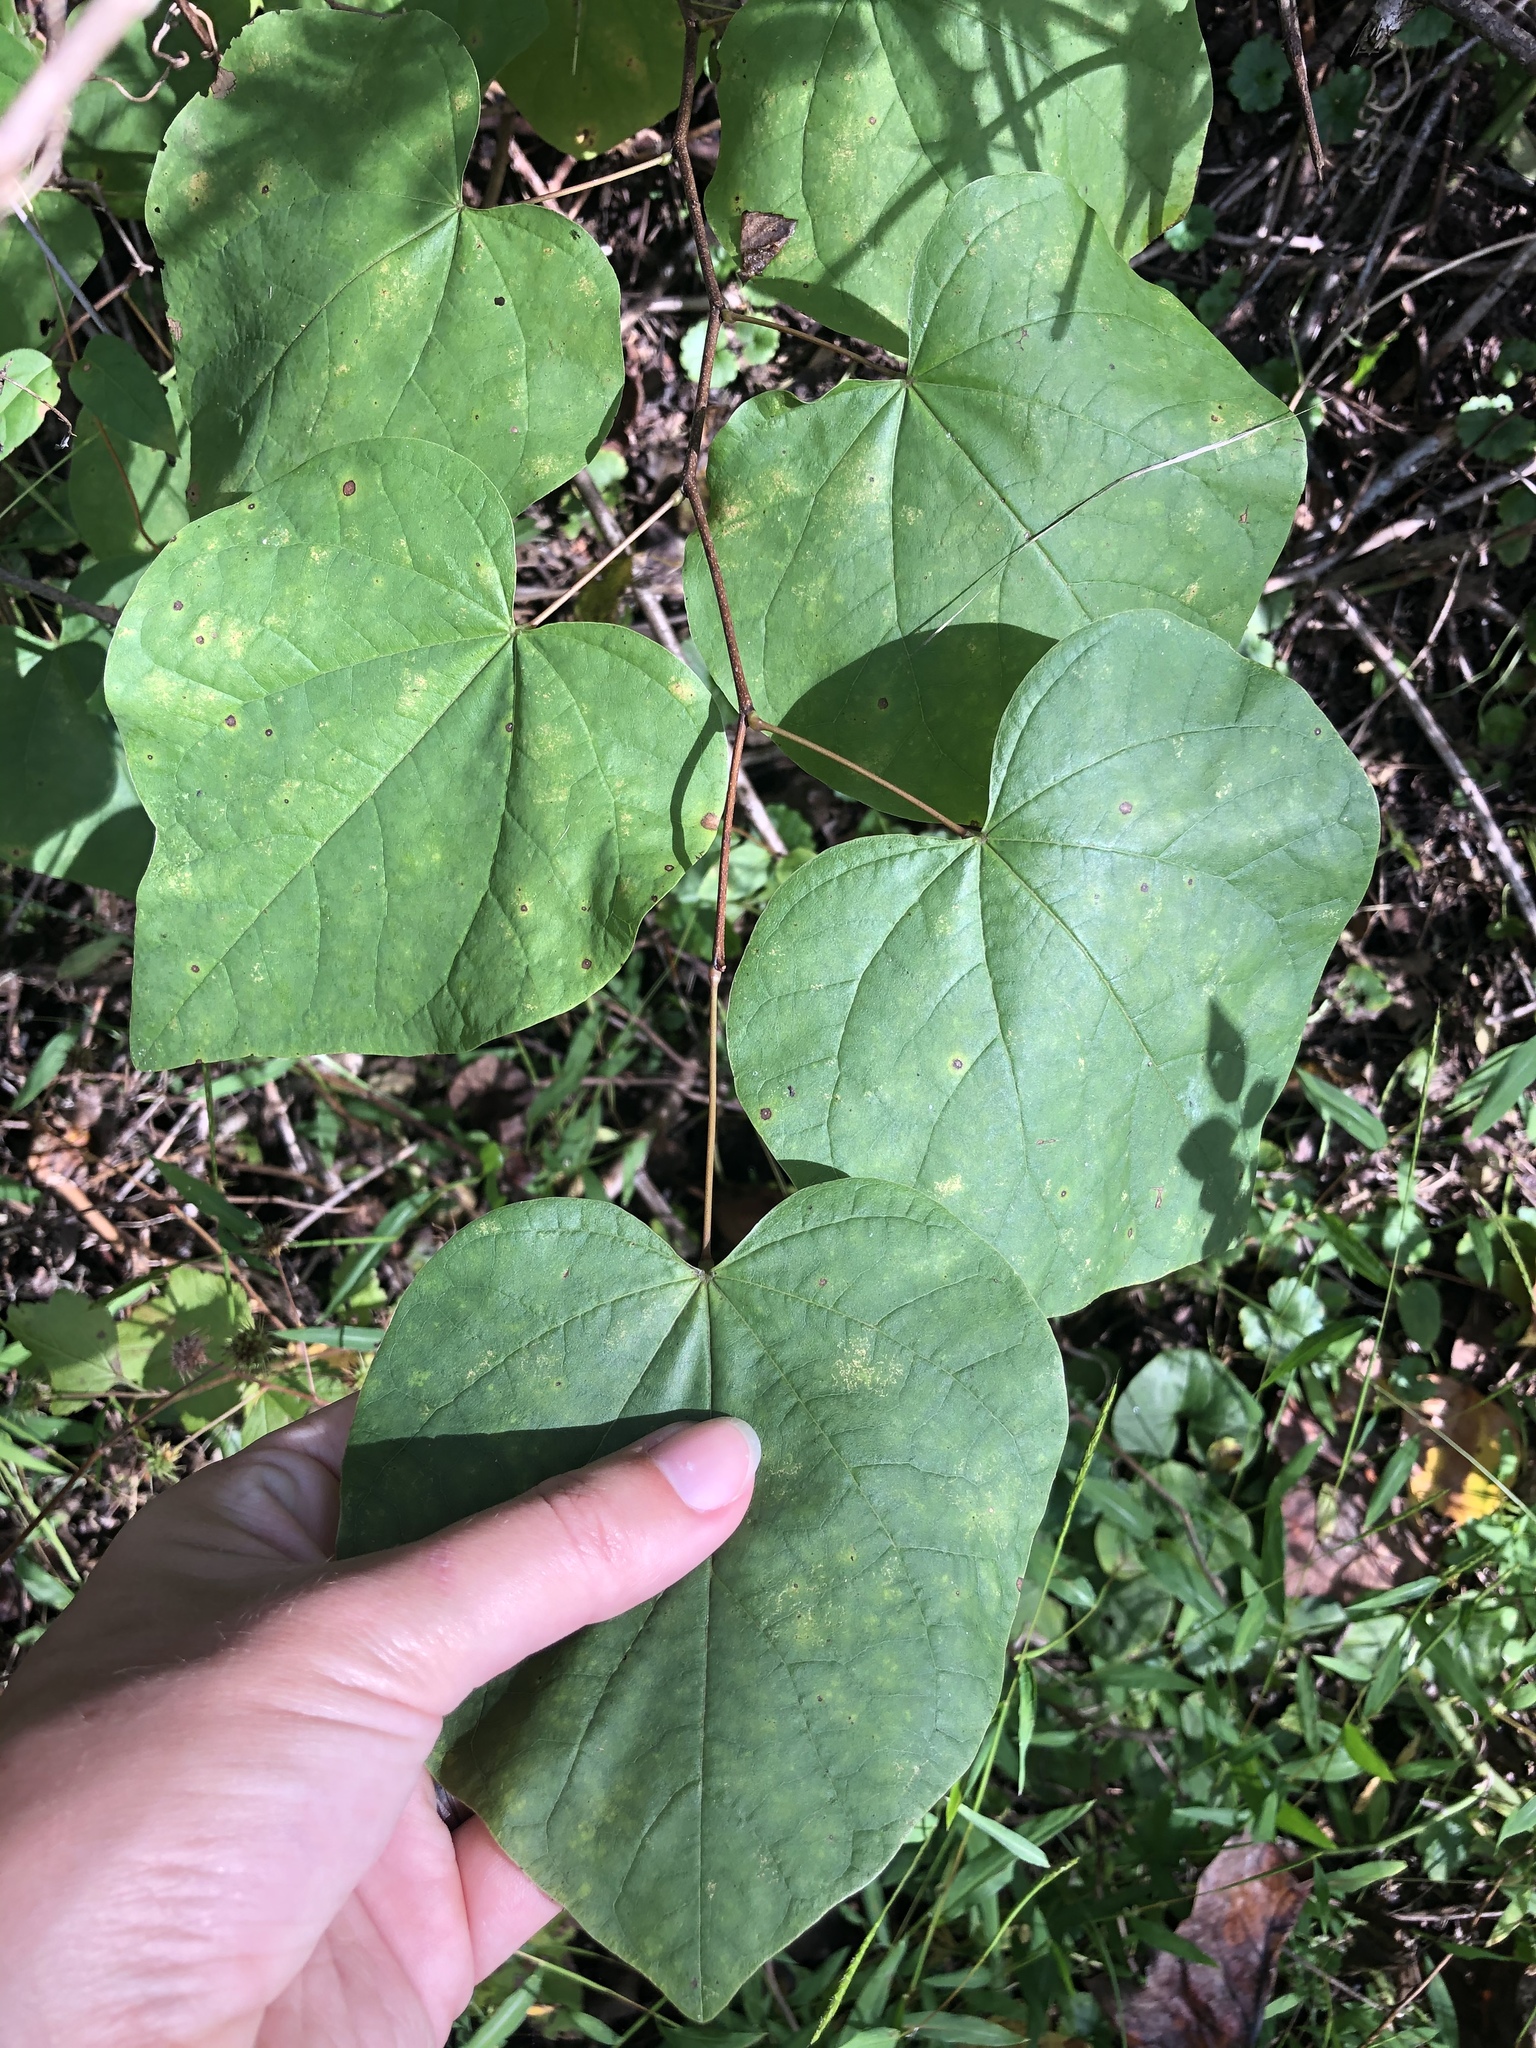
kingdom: Plantae
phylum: Tracheophyta
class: Magnoliopsida
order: Fabales
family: Fabaceae
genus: Cercis
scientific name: Cercis canadensis
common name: Eastern redbud
